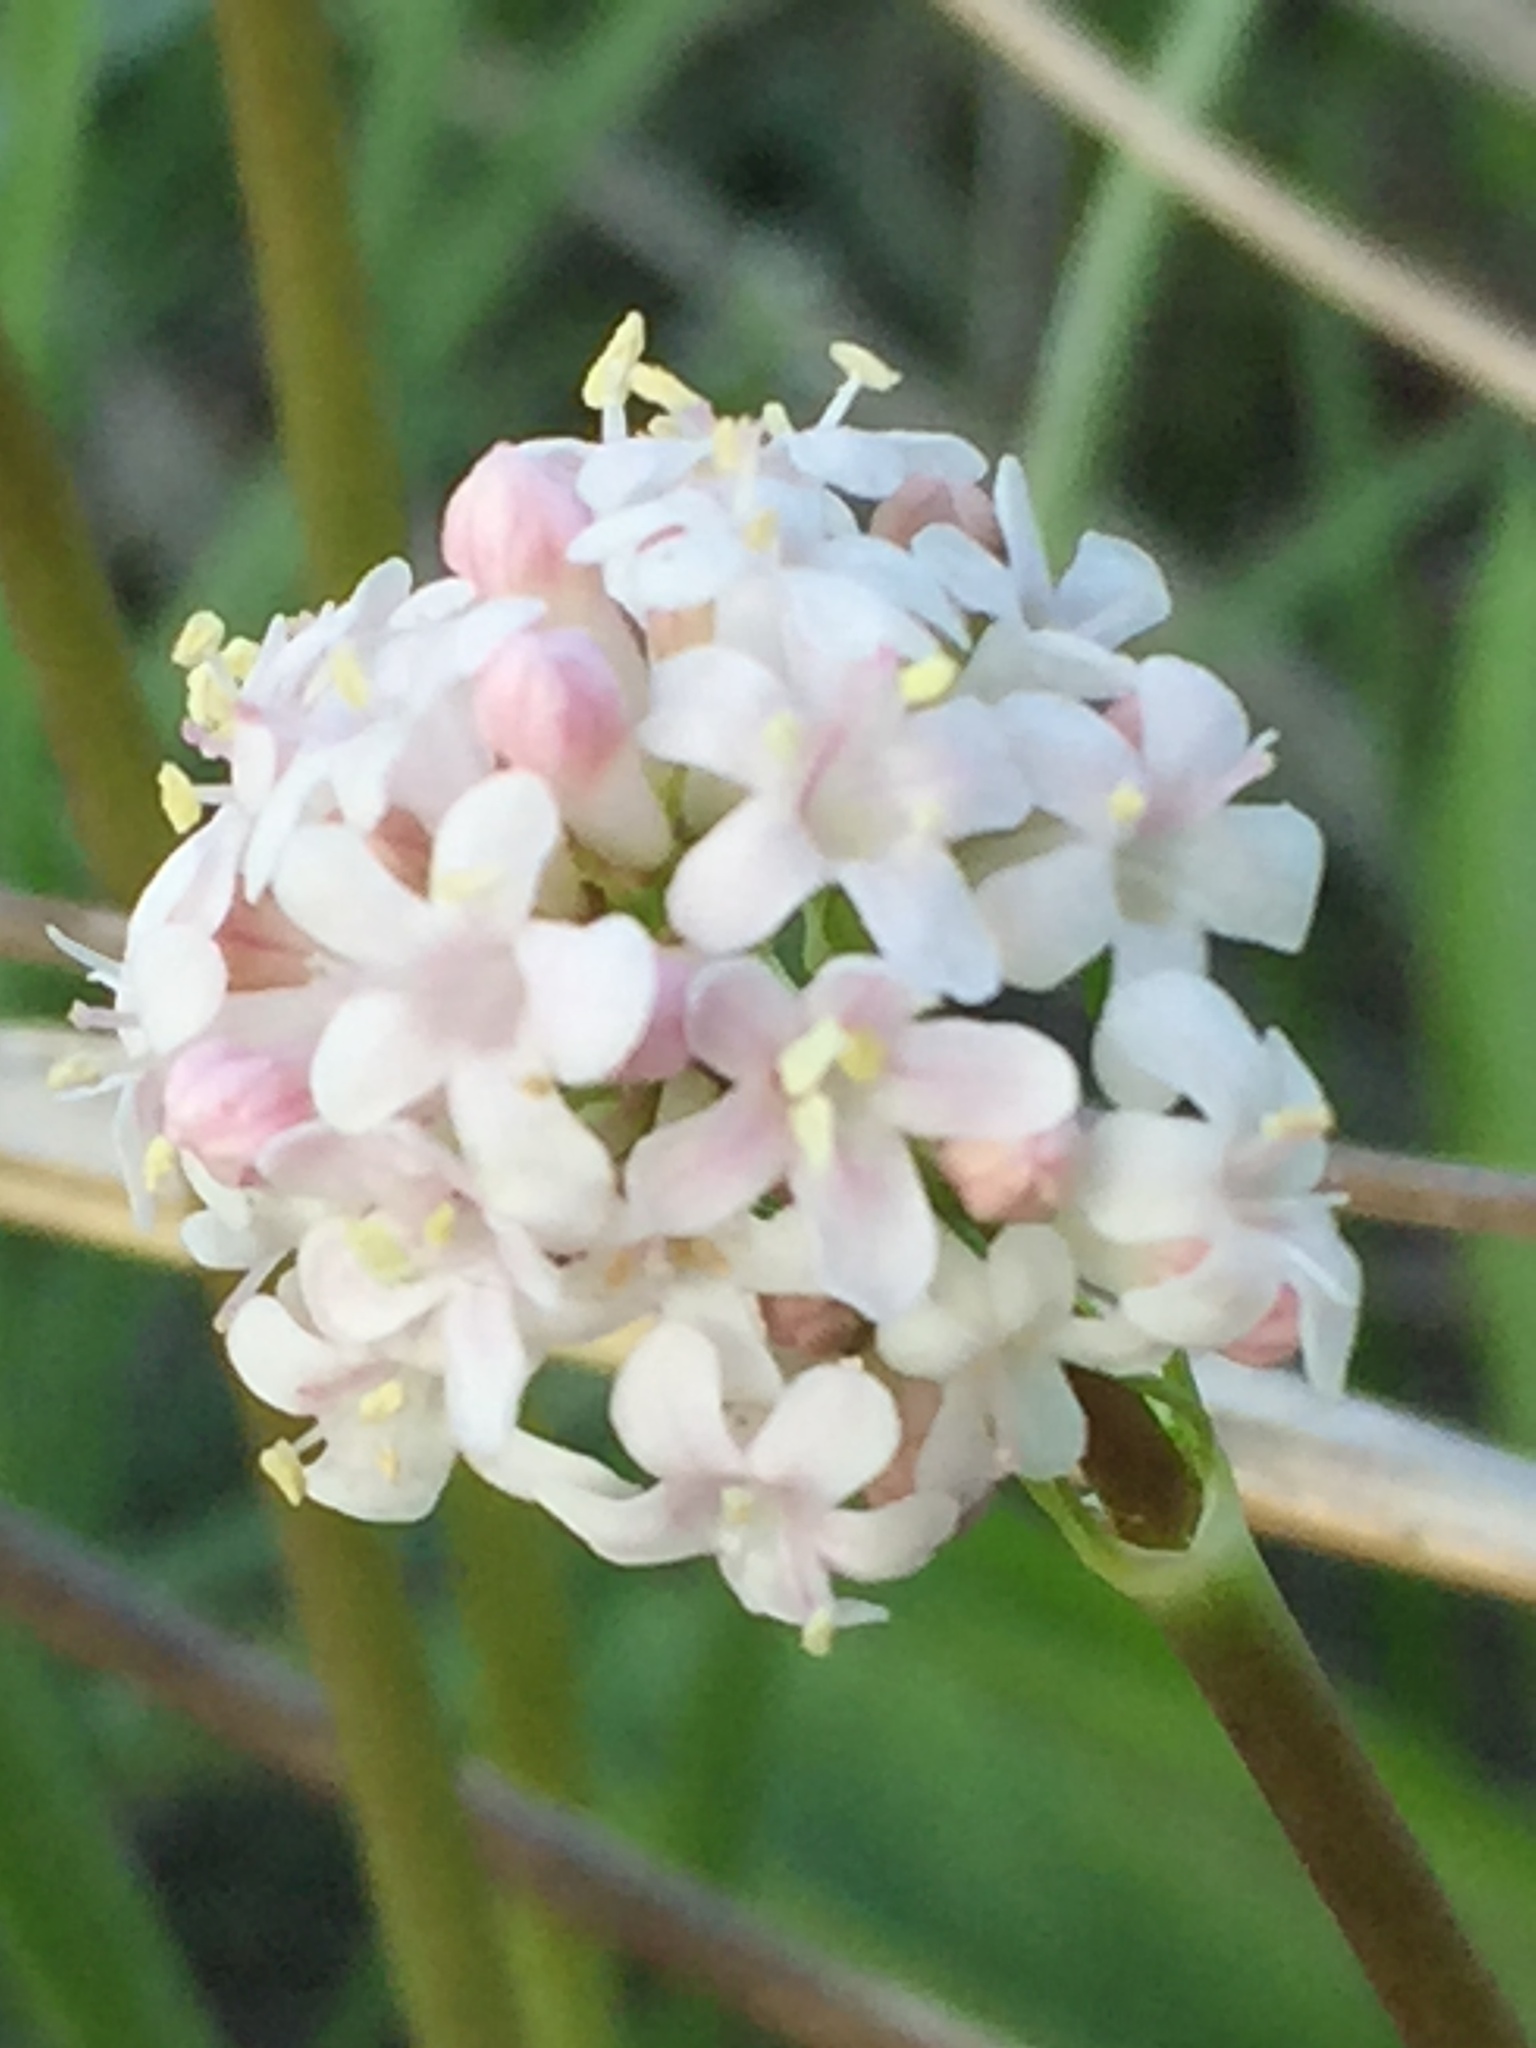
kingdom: Plantae
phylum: Tracheophyta
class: Magnoliopsida
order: Dipsacales
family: Caprifoliaceae
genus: Valeriana
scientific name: Valeriana tuberosa
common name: Tuberous valerian
